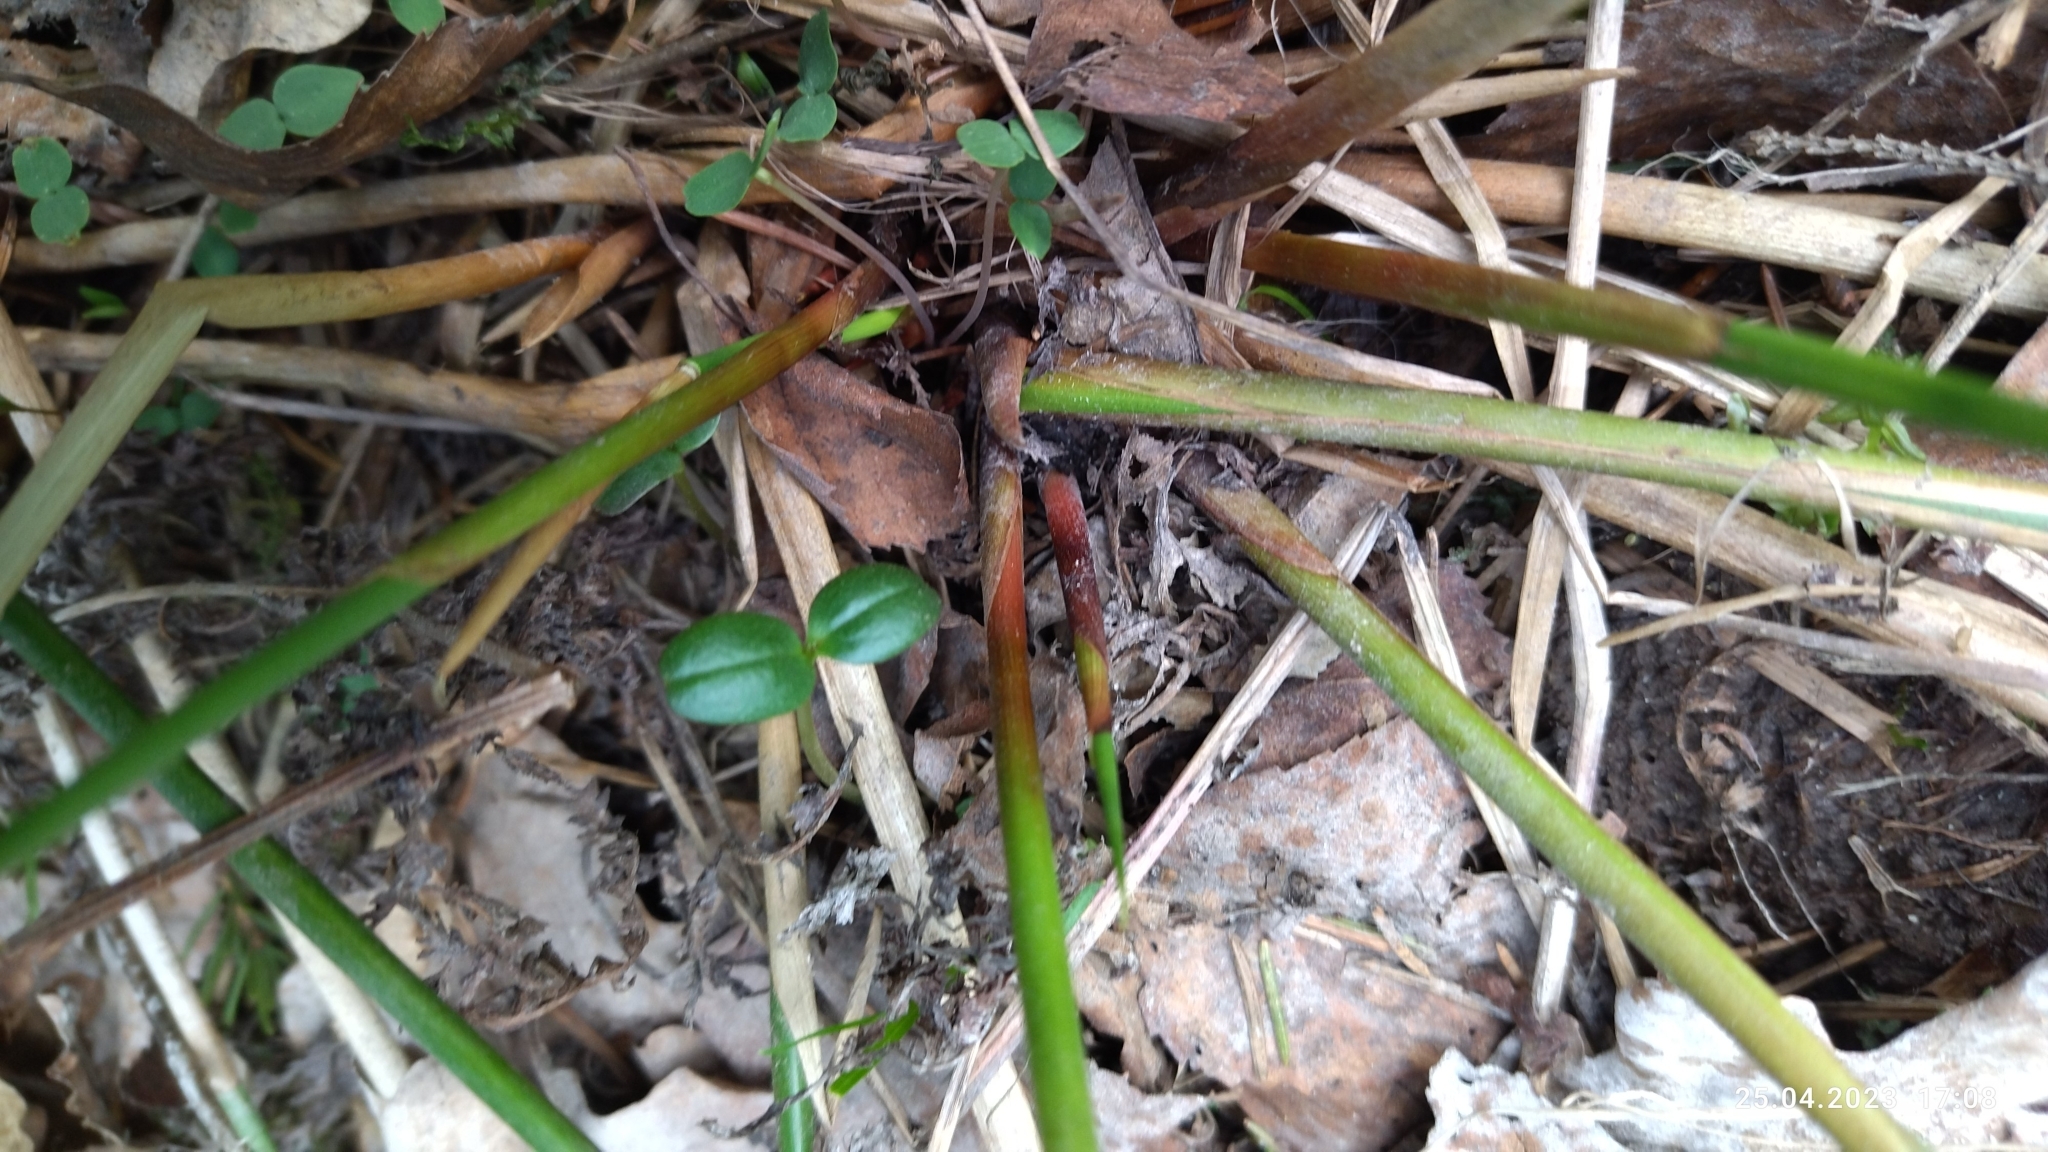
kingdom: Plantae
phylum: Tracheophyta
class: Liliopsida
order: Poales
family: Juncaceae
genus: Juncus
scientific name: Juncus effusus
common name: Soft rush
